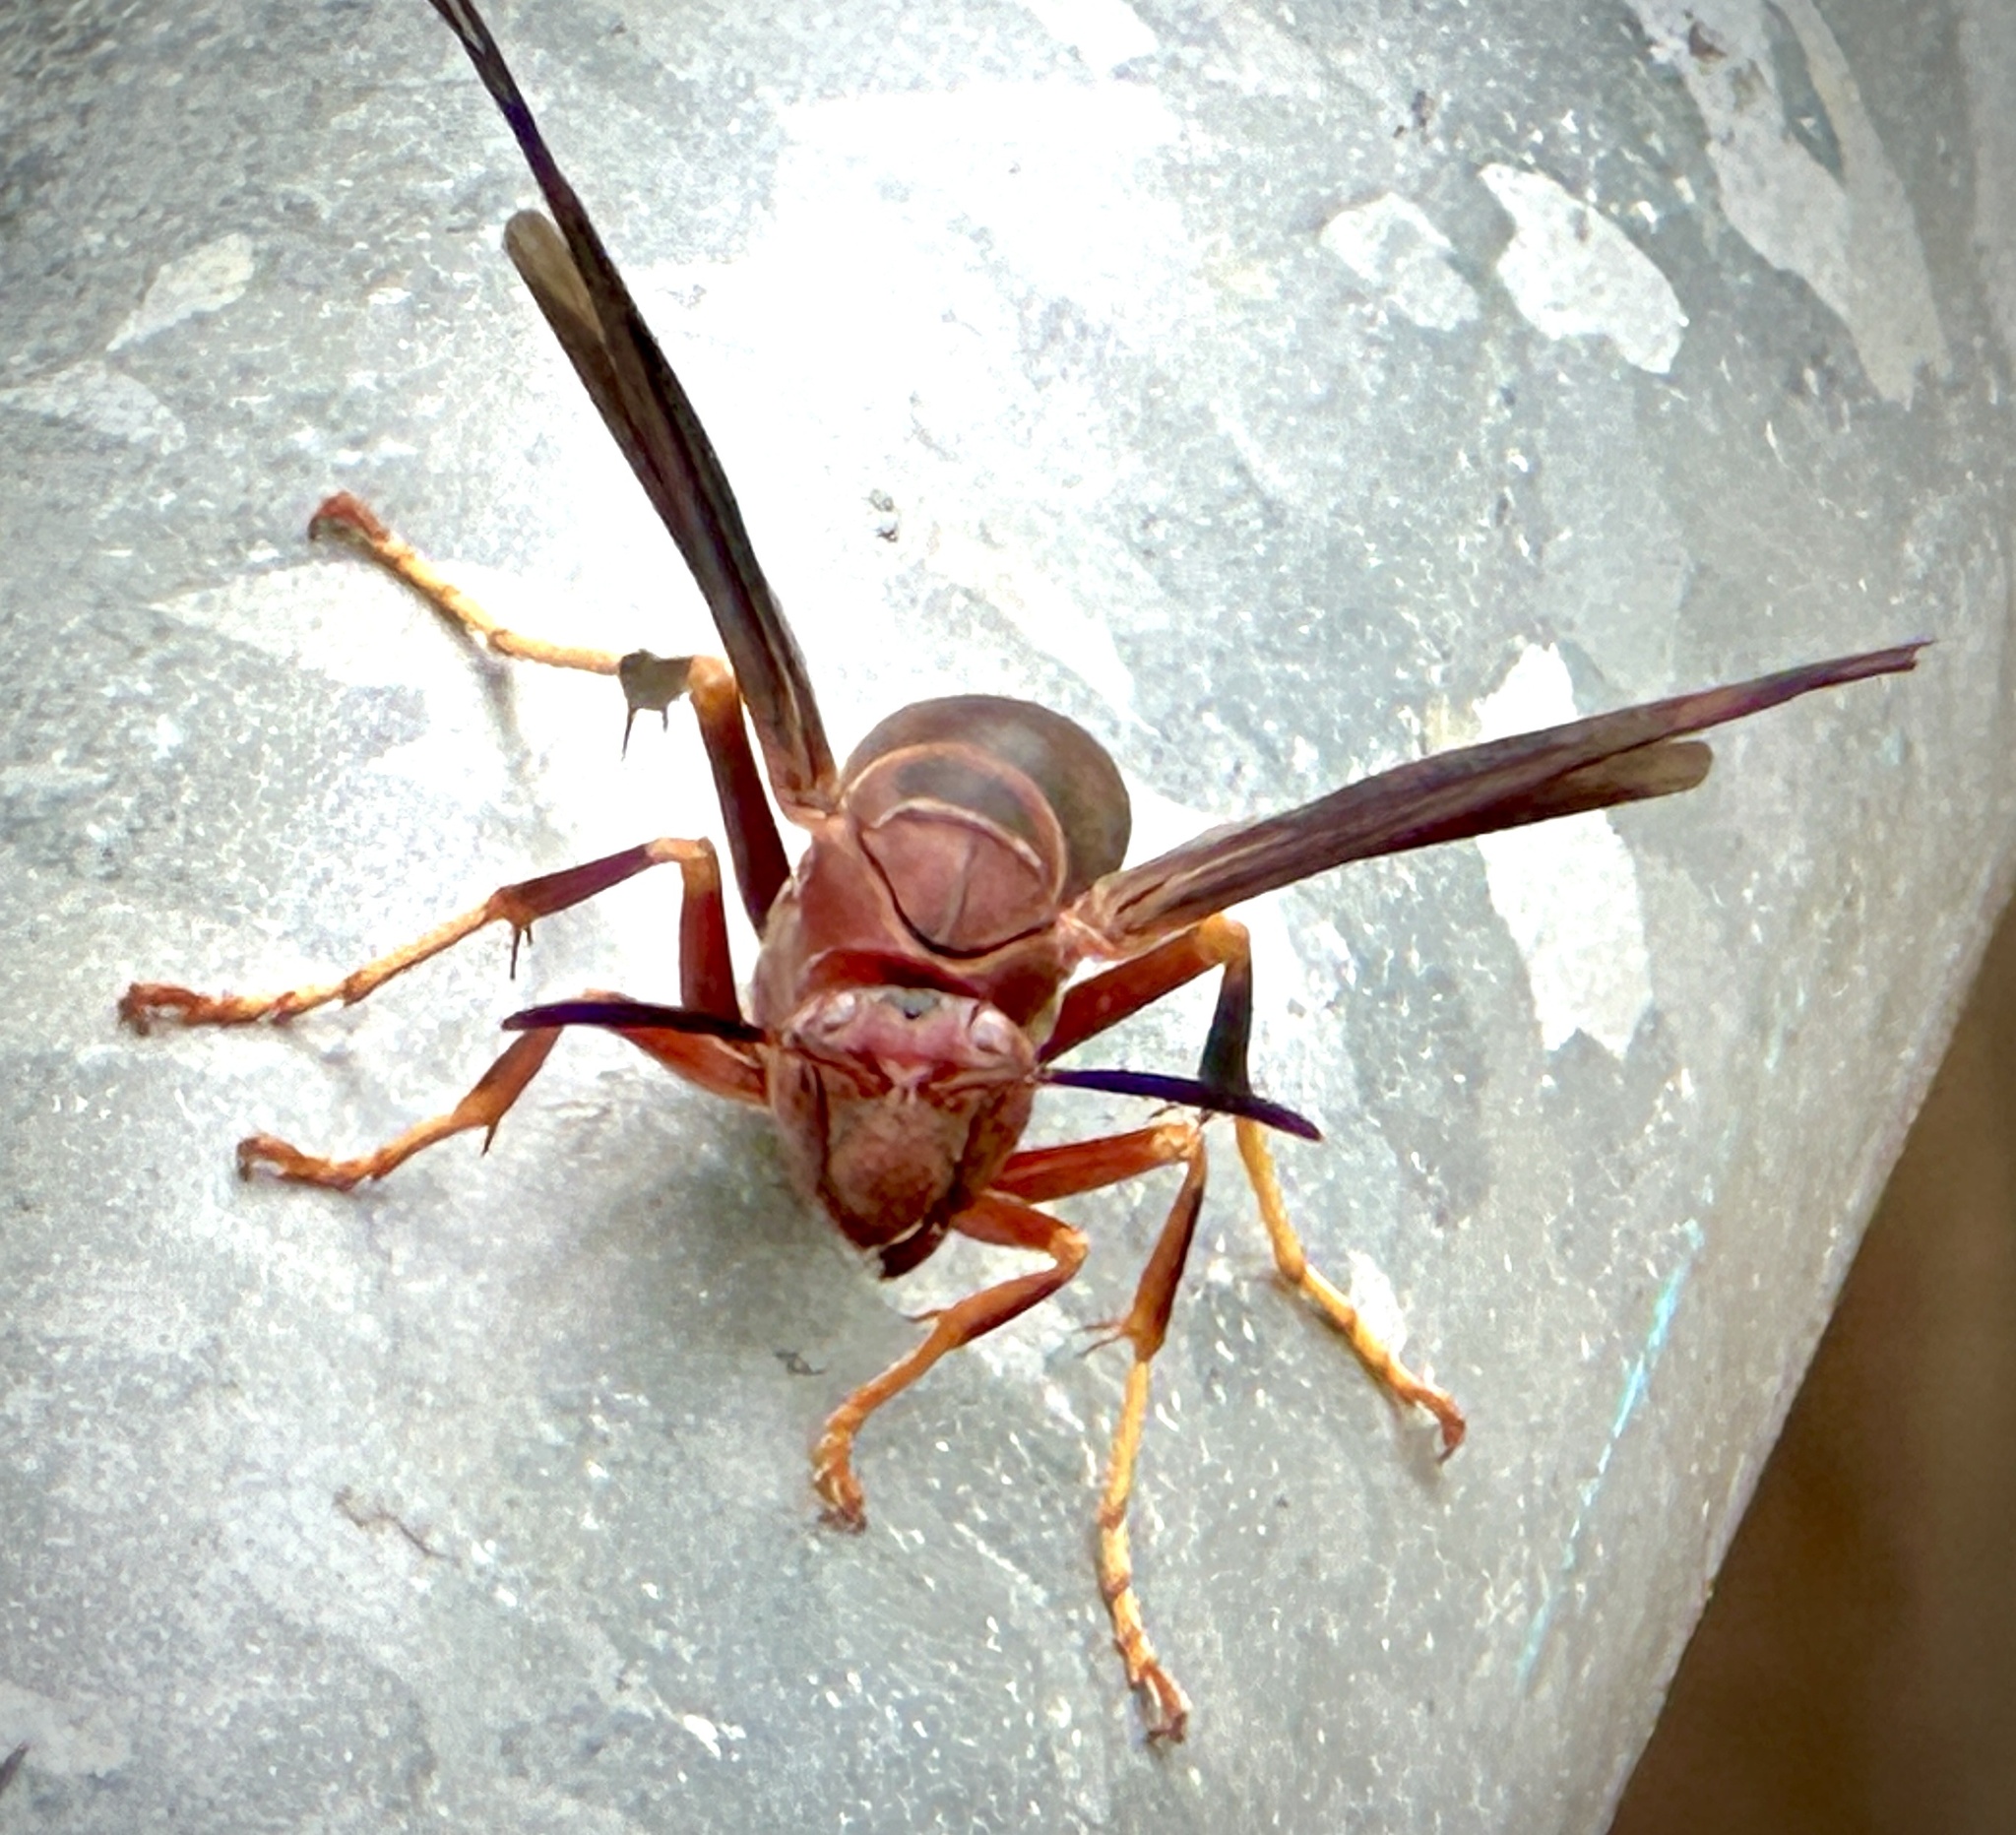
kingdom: Animalia
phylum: Arthropoda
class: Insecta
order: Hymenoptera
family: Eumenidae
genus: Polistes
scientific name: Polistes metricus
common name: Metric paper wasp
